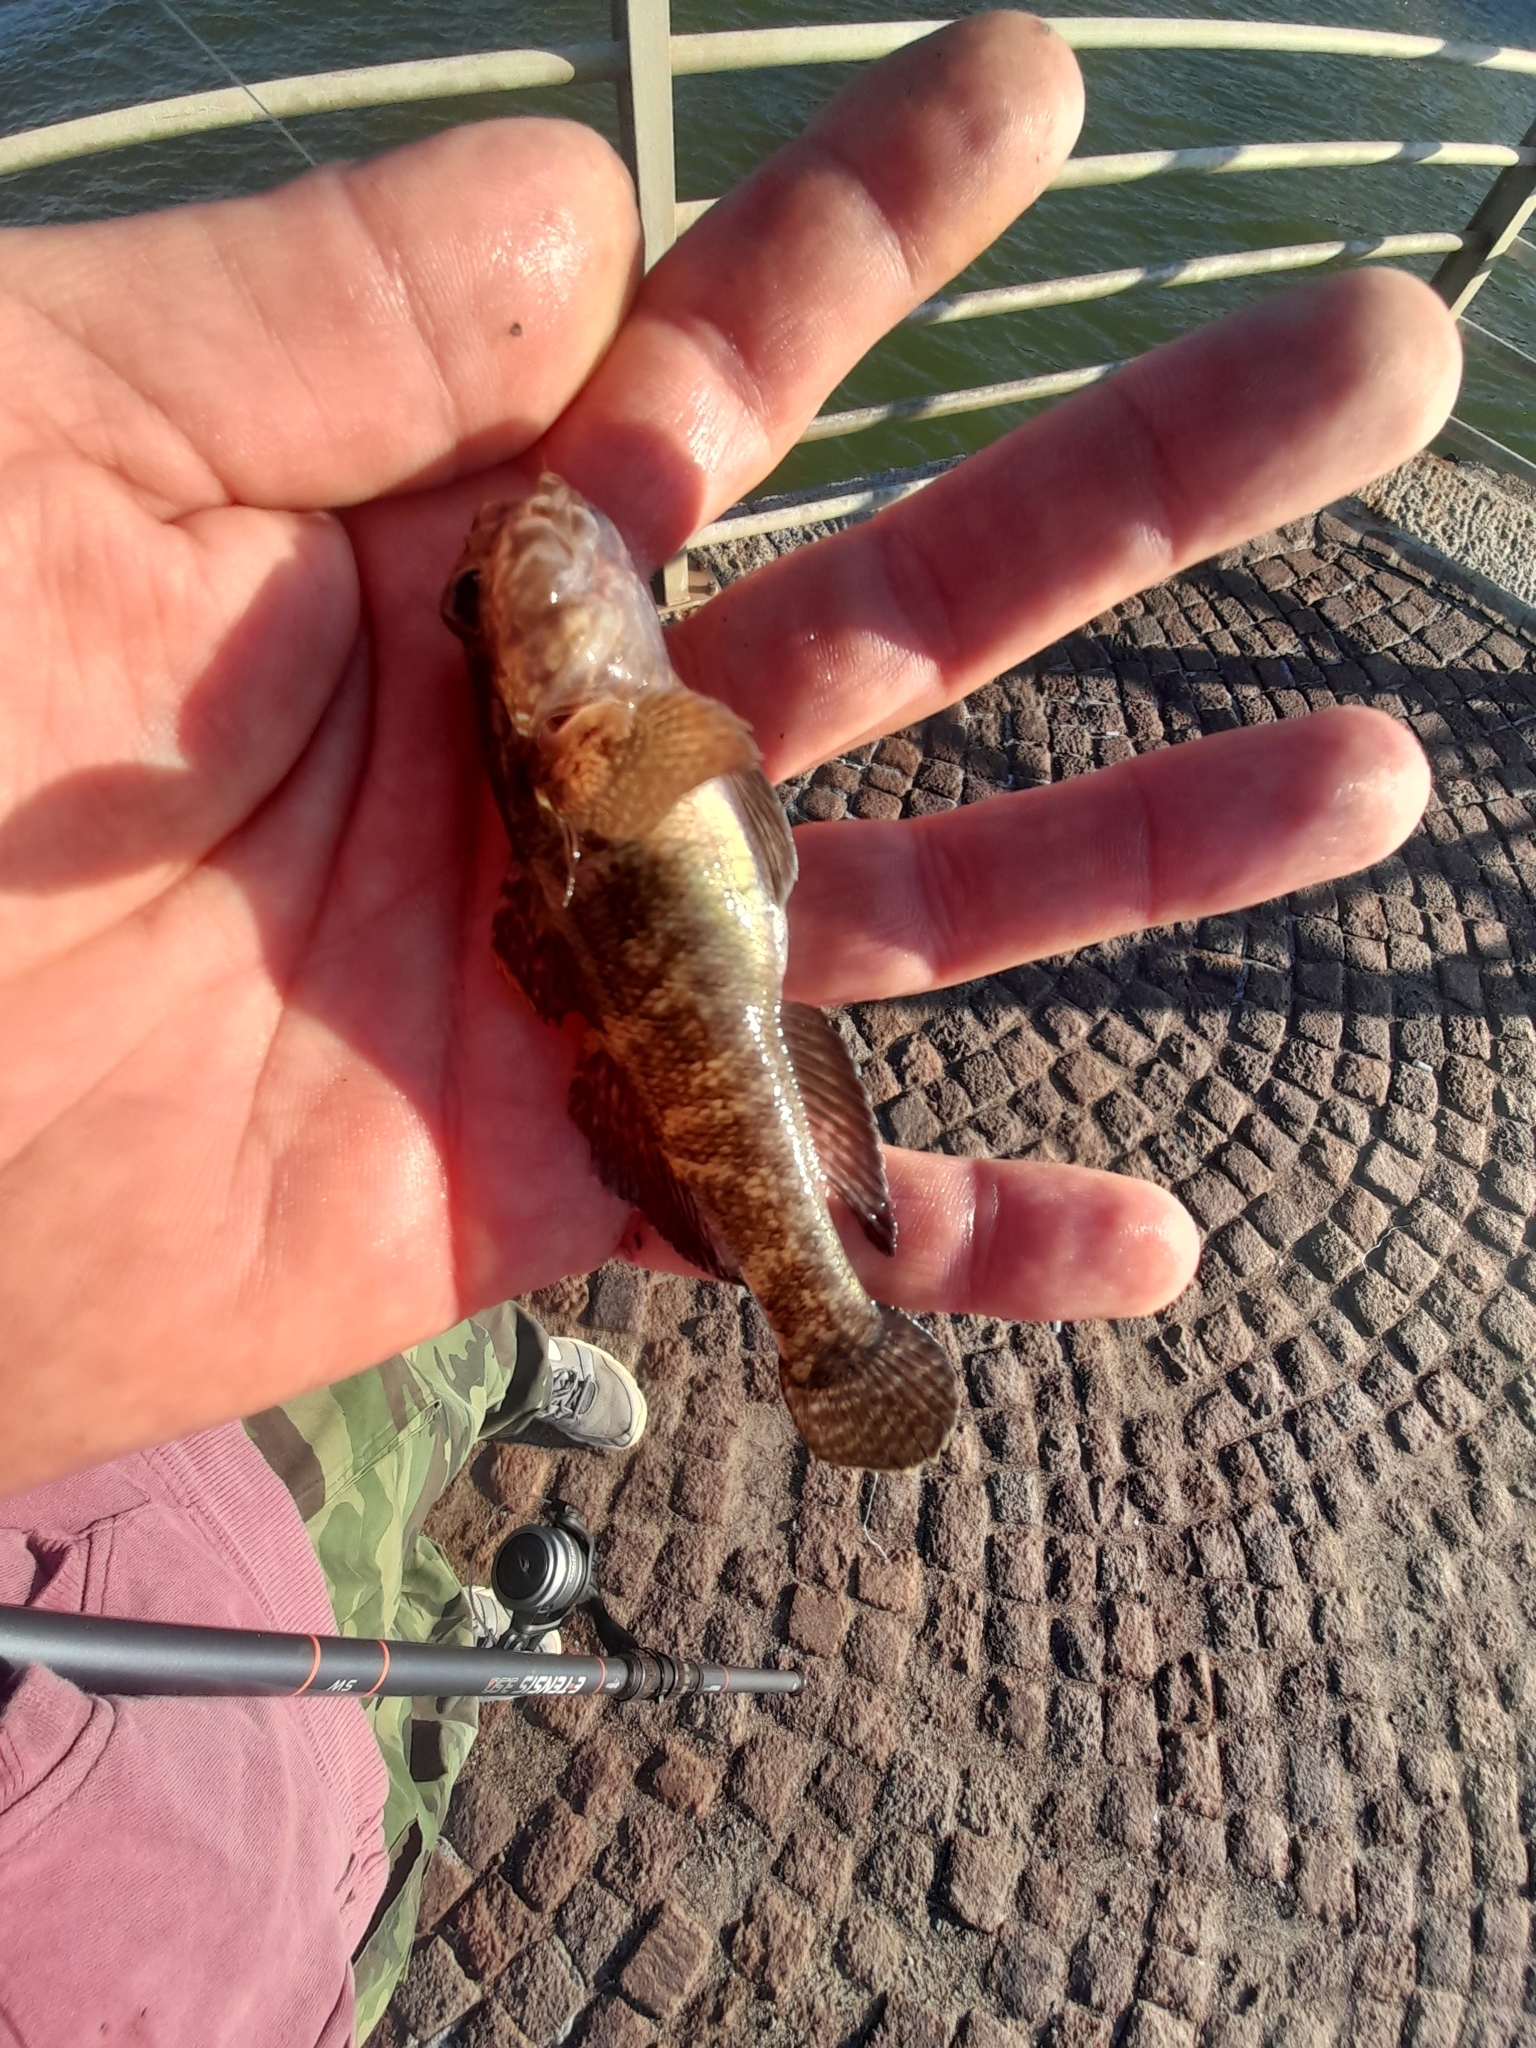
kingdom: Animalia
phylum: Chordata
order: Perciformes
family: Gobiidae
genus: Gobius
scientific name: Gobius paganellus
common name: Rock goby
